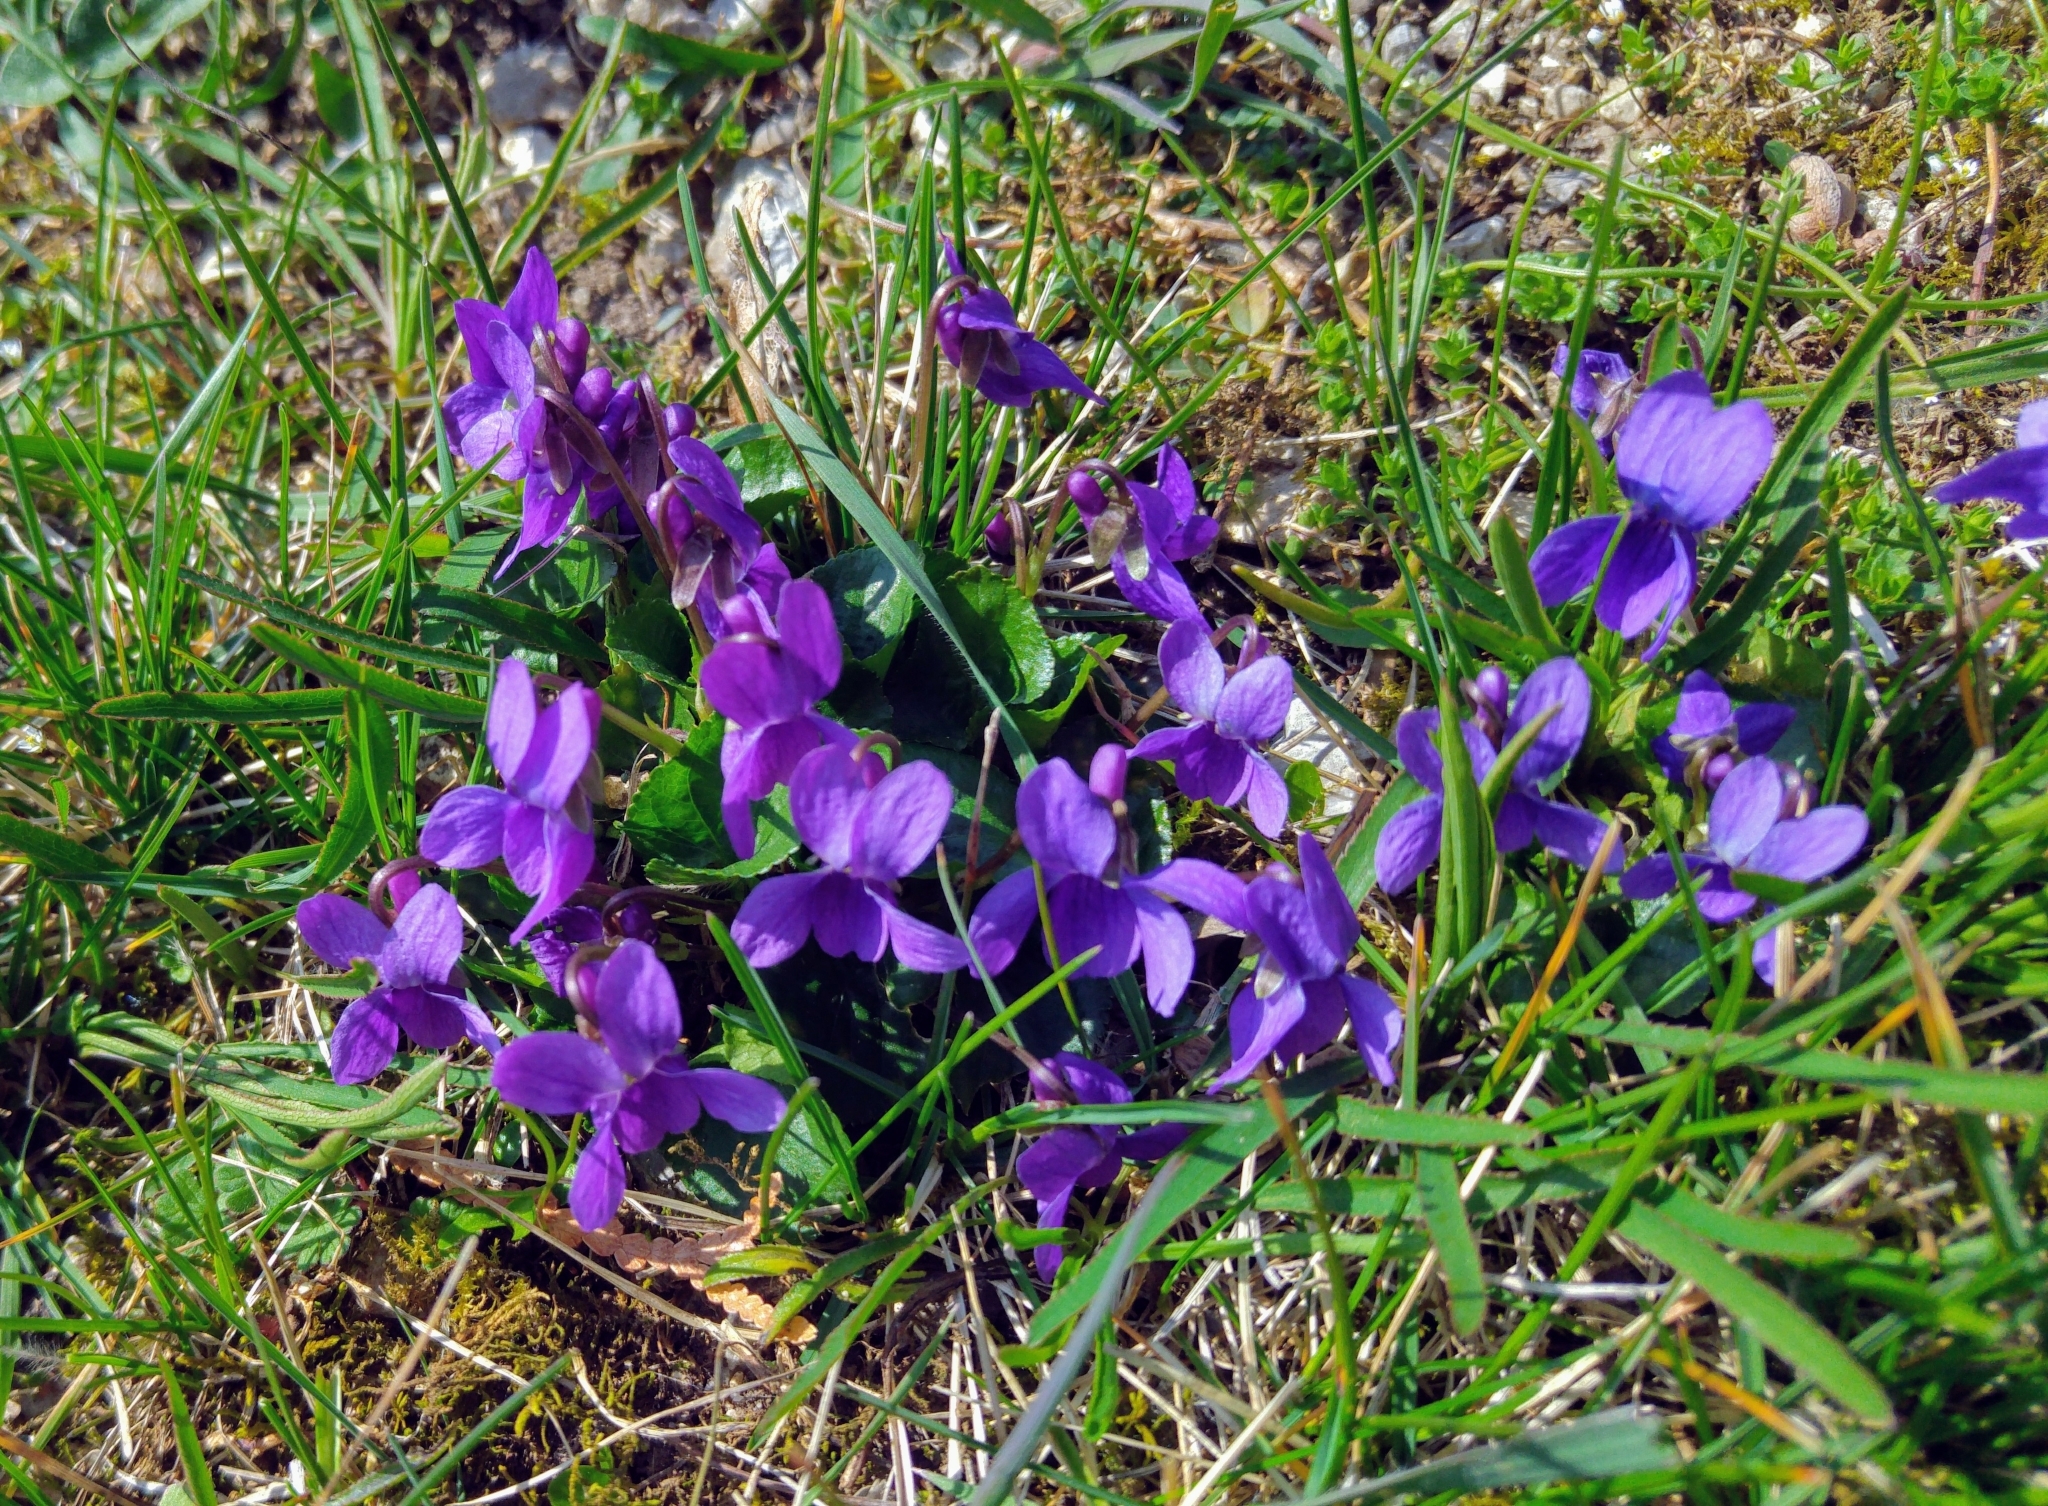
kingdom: Plantae
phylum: Tracheophyta
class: Magnoliopsida
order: Malpighiales
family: Violaceae
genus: Viola
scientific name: Viola odorata
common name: Sweet violet
